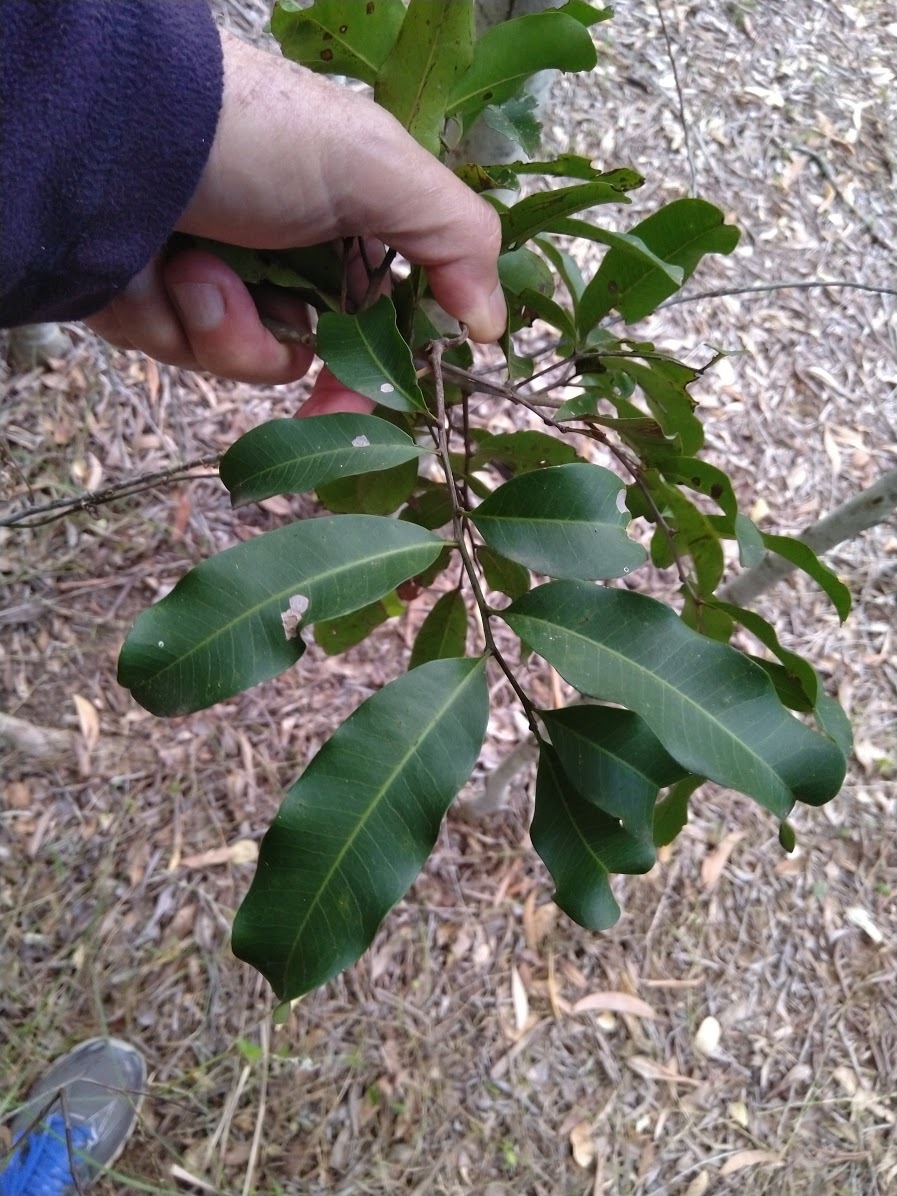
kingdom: Plantae
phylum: Tracheophyta
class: Magnoliopsida
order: Sapindales
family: Sapindaceae
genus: Cupaniopsis
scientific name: Cupaniopsis parvifolia
